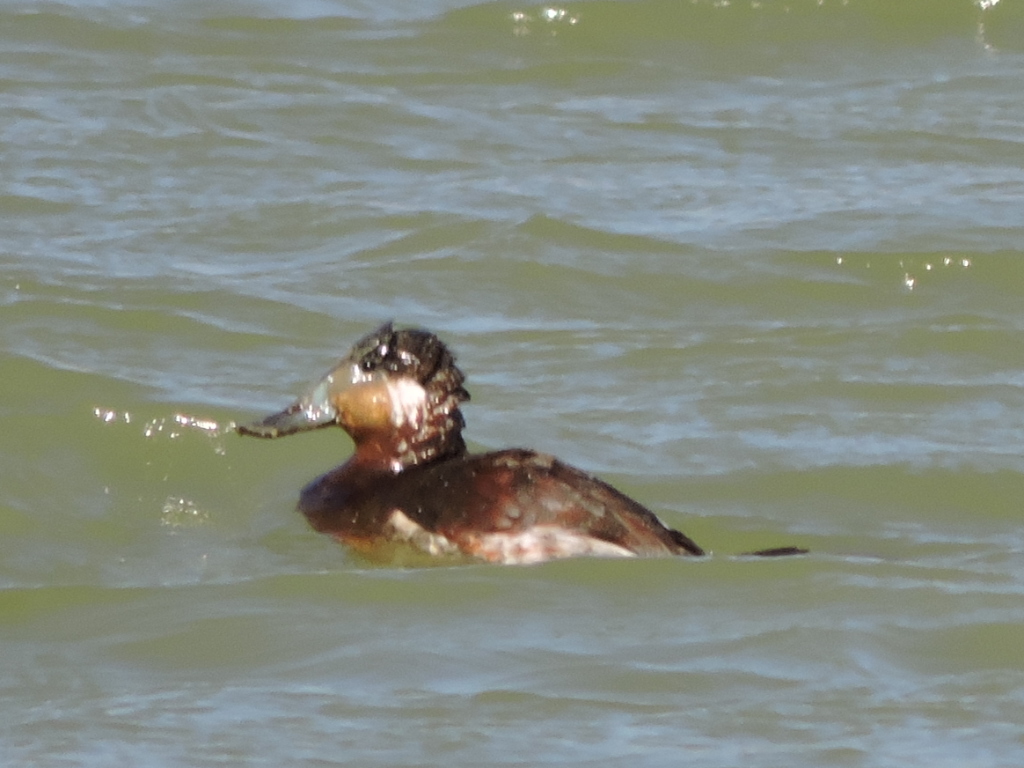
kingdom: Animalia
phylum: Chordata
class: Aves
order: Anseriformes
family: Anatidae
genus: Oxyura
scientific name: Oxyura jamaicensis
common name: Ruddy duck
